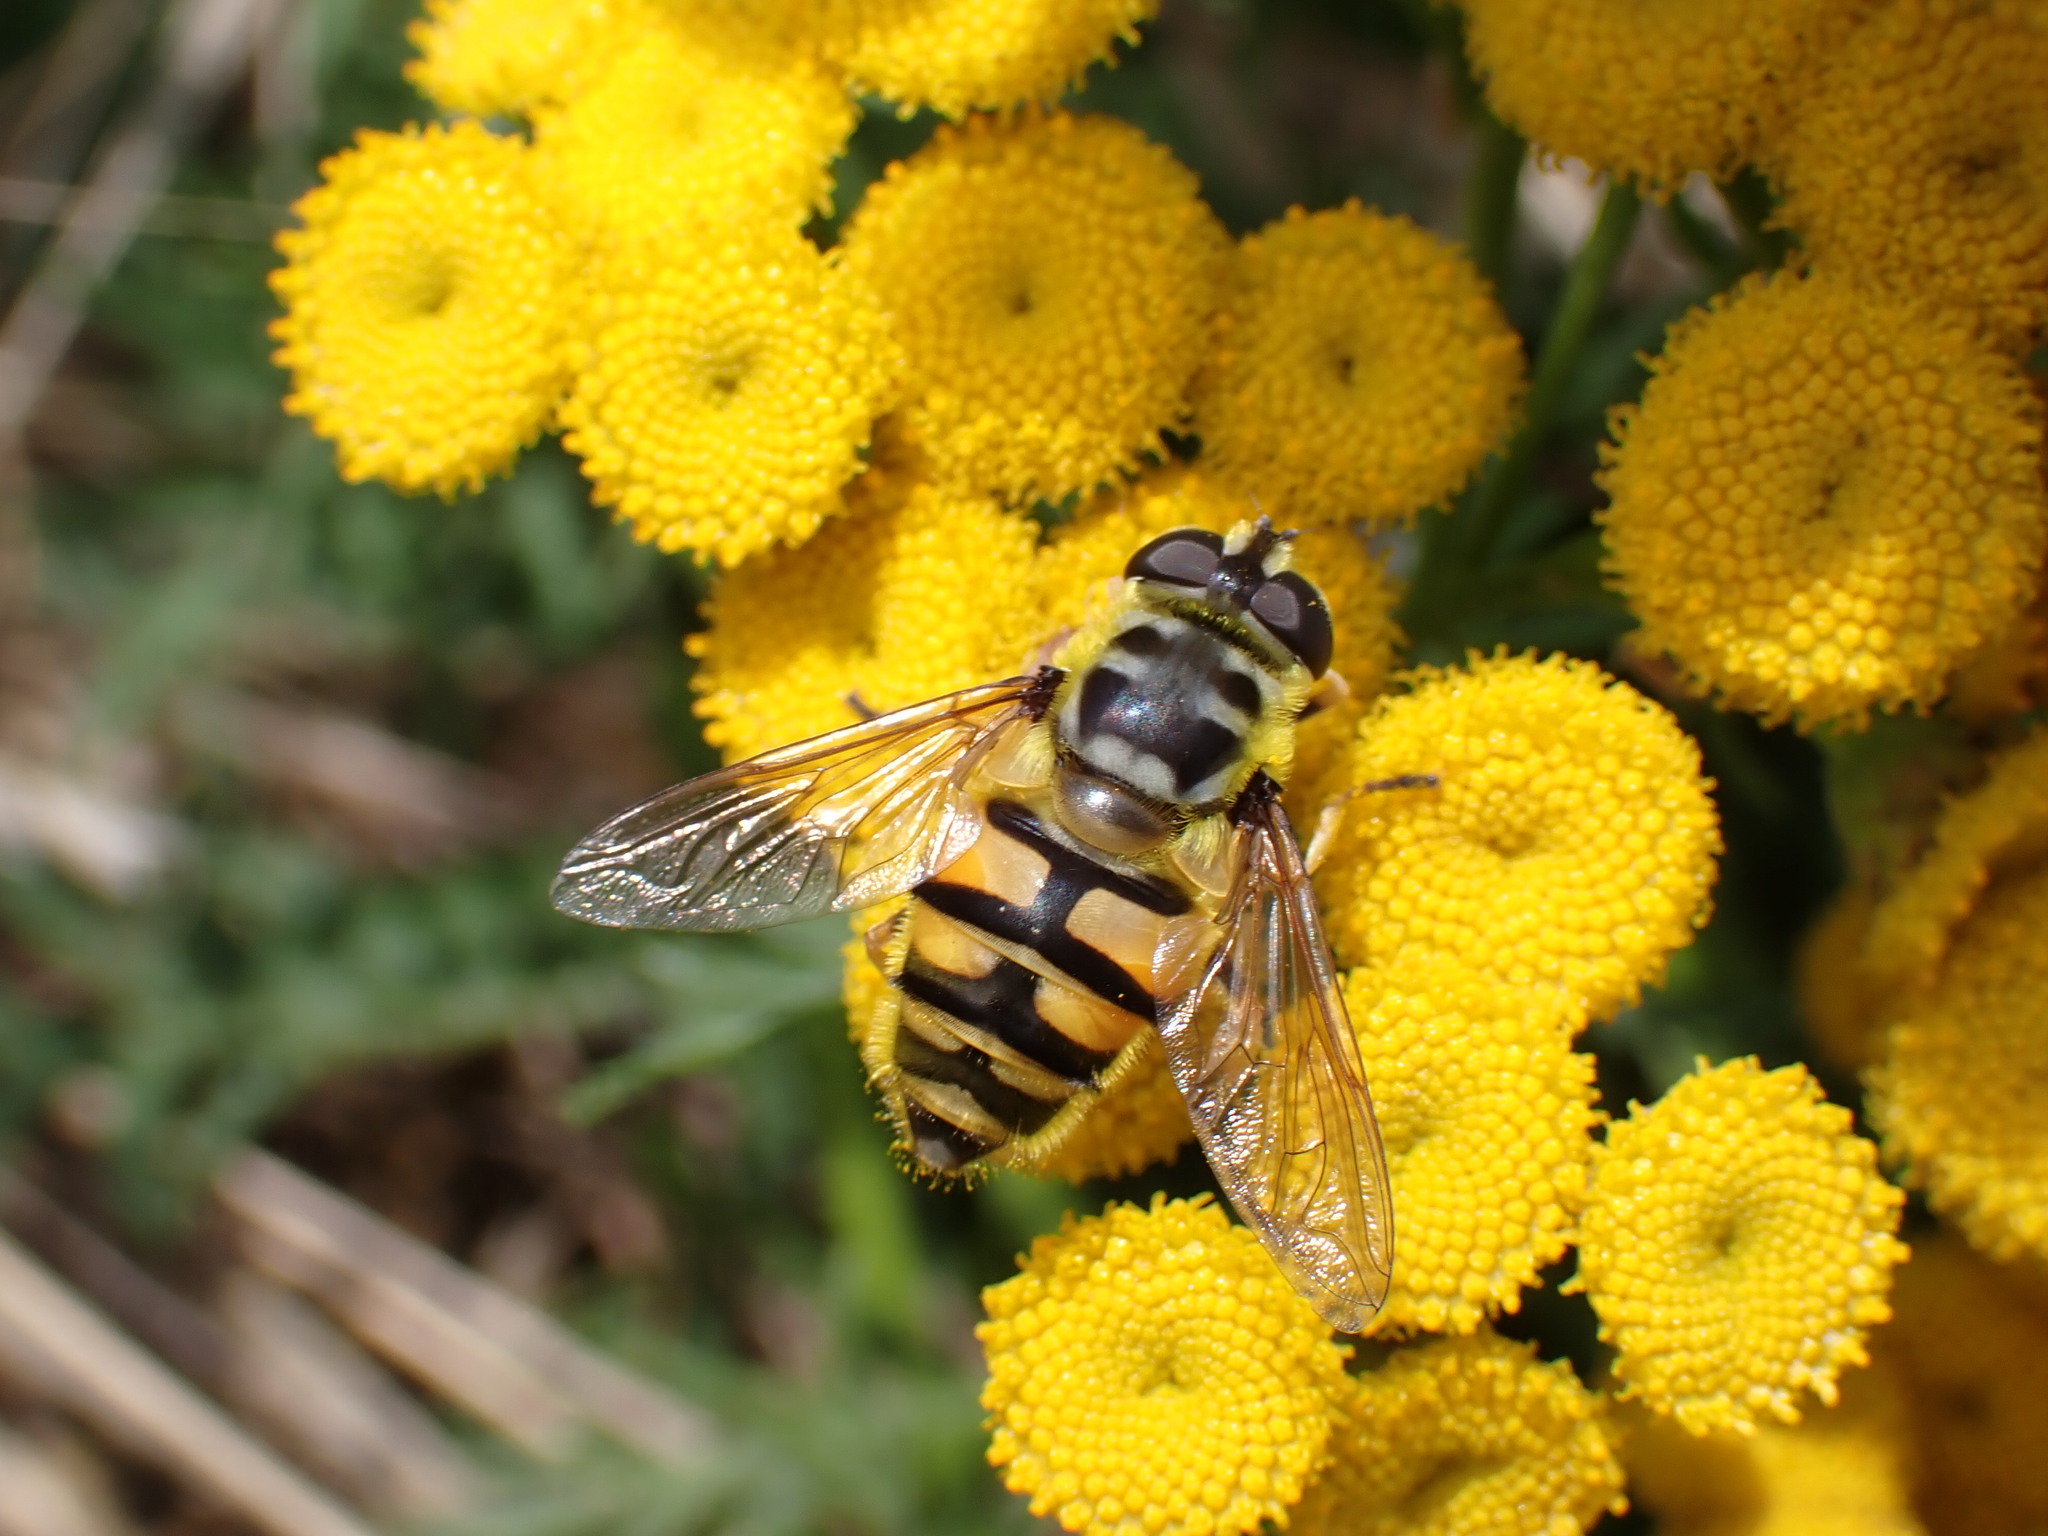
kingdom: Animalia
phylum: Arthropoda
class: Insecta
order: Diptera
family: Syrphidae
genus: Myathropa
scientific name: Myathropa florea
